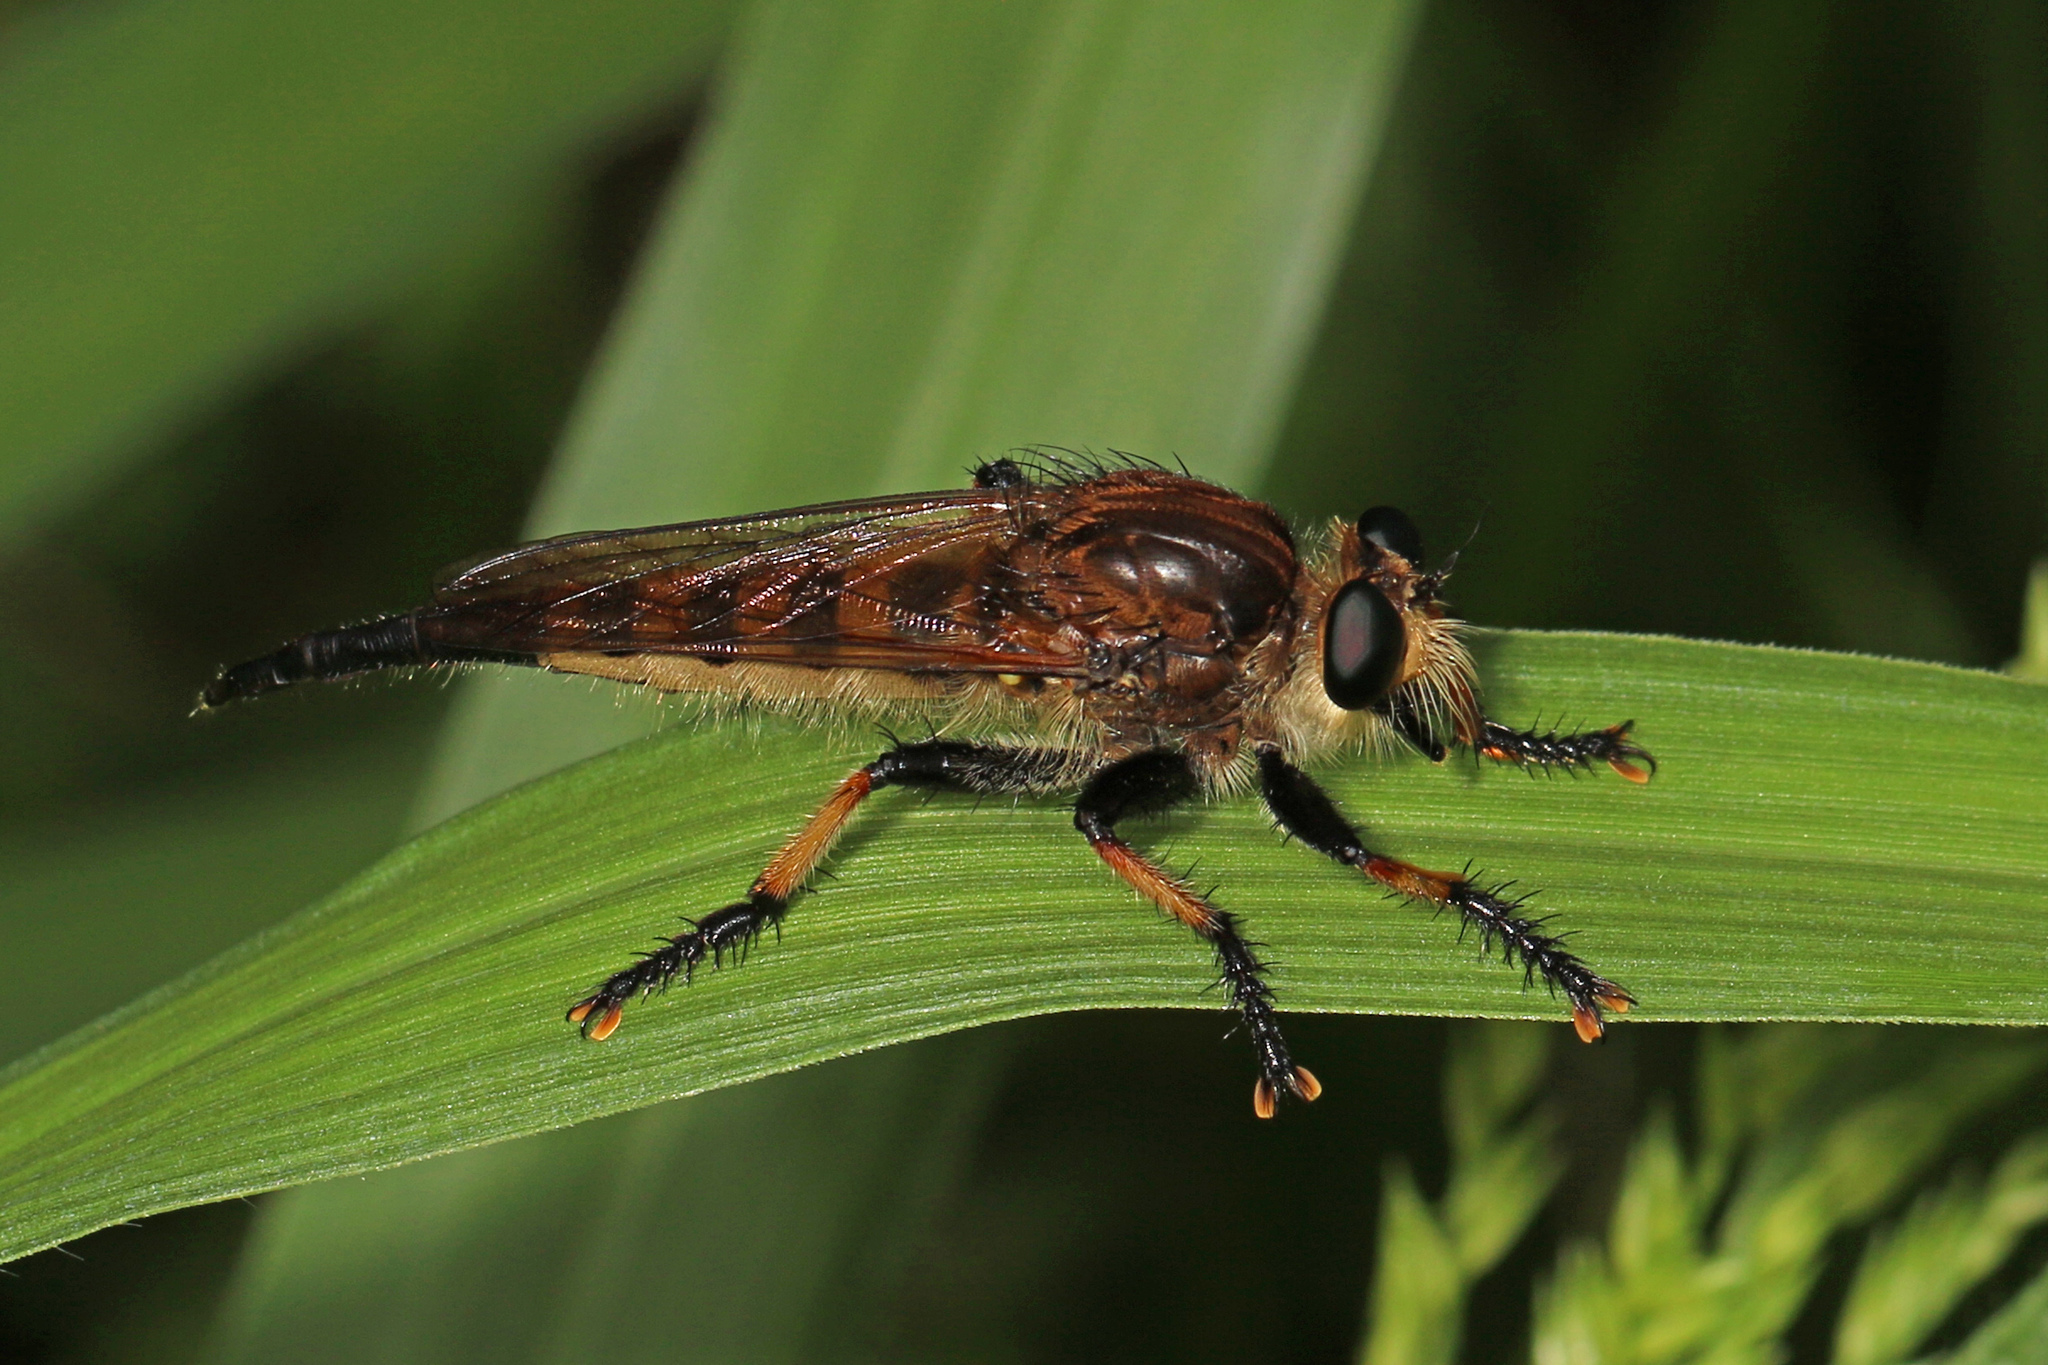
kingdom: Animalia
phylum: Arthropoda
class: Insecta
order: Diptera
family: Asilidae
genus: Promachus
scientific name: Promachus rufipes
